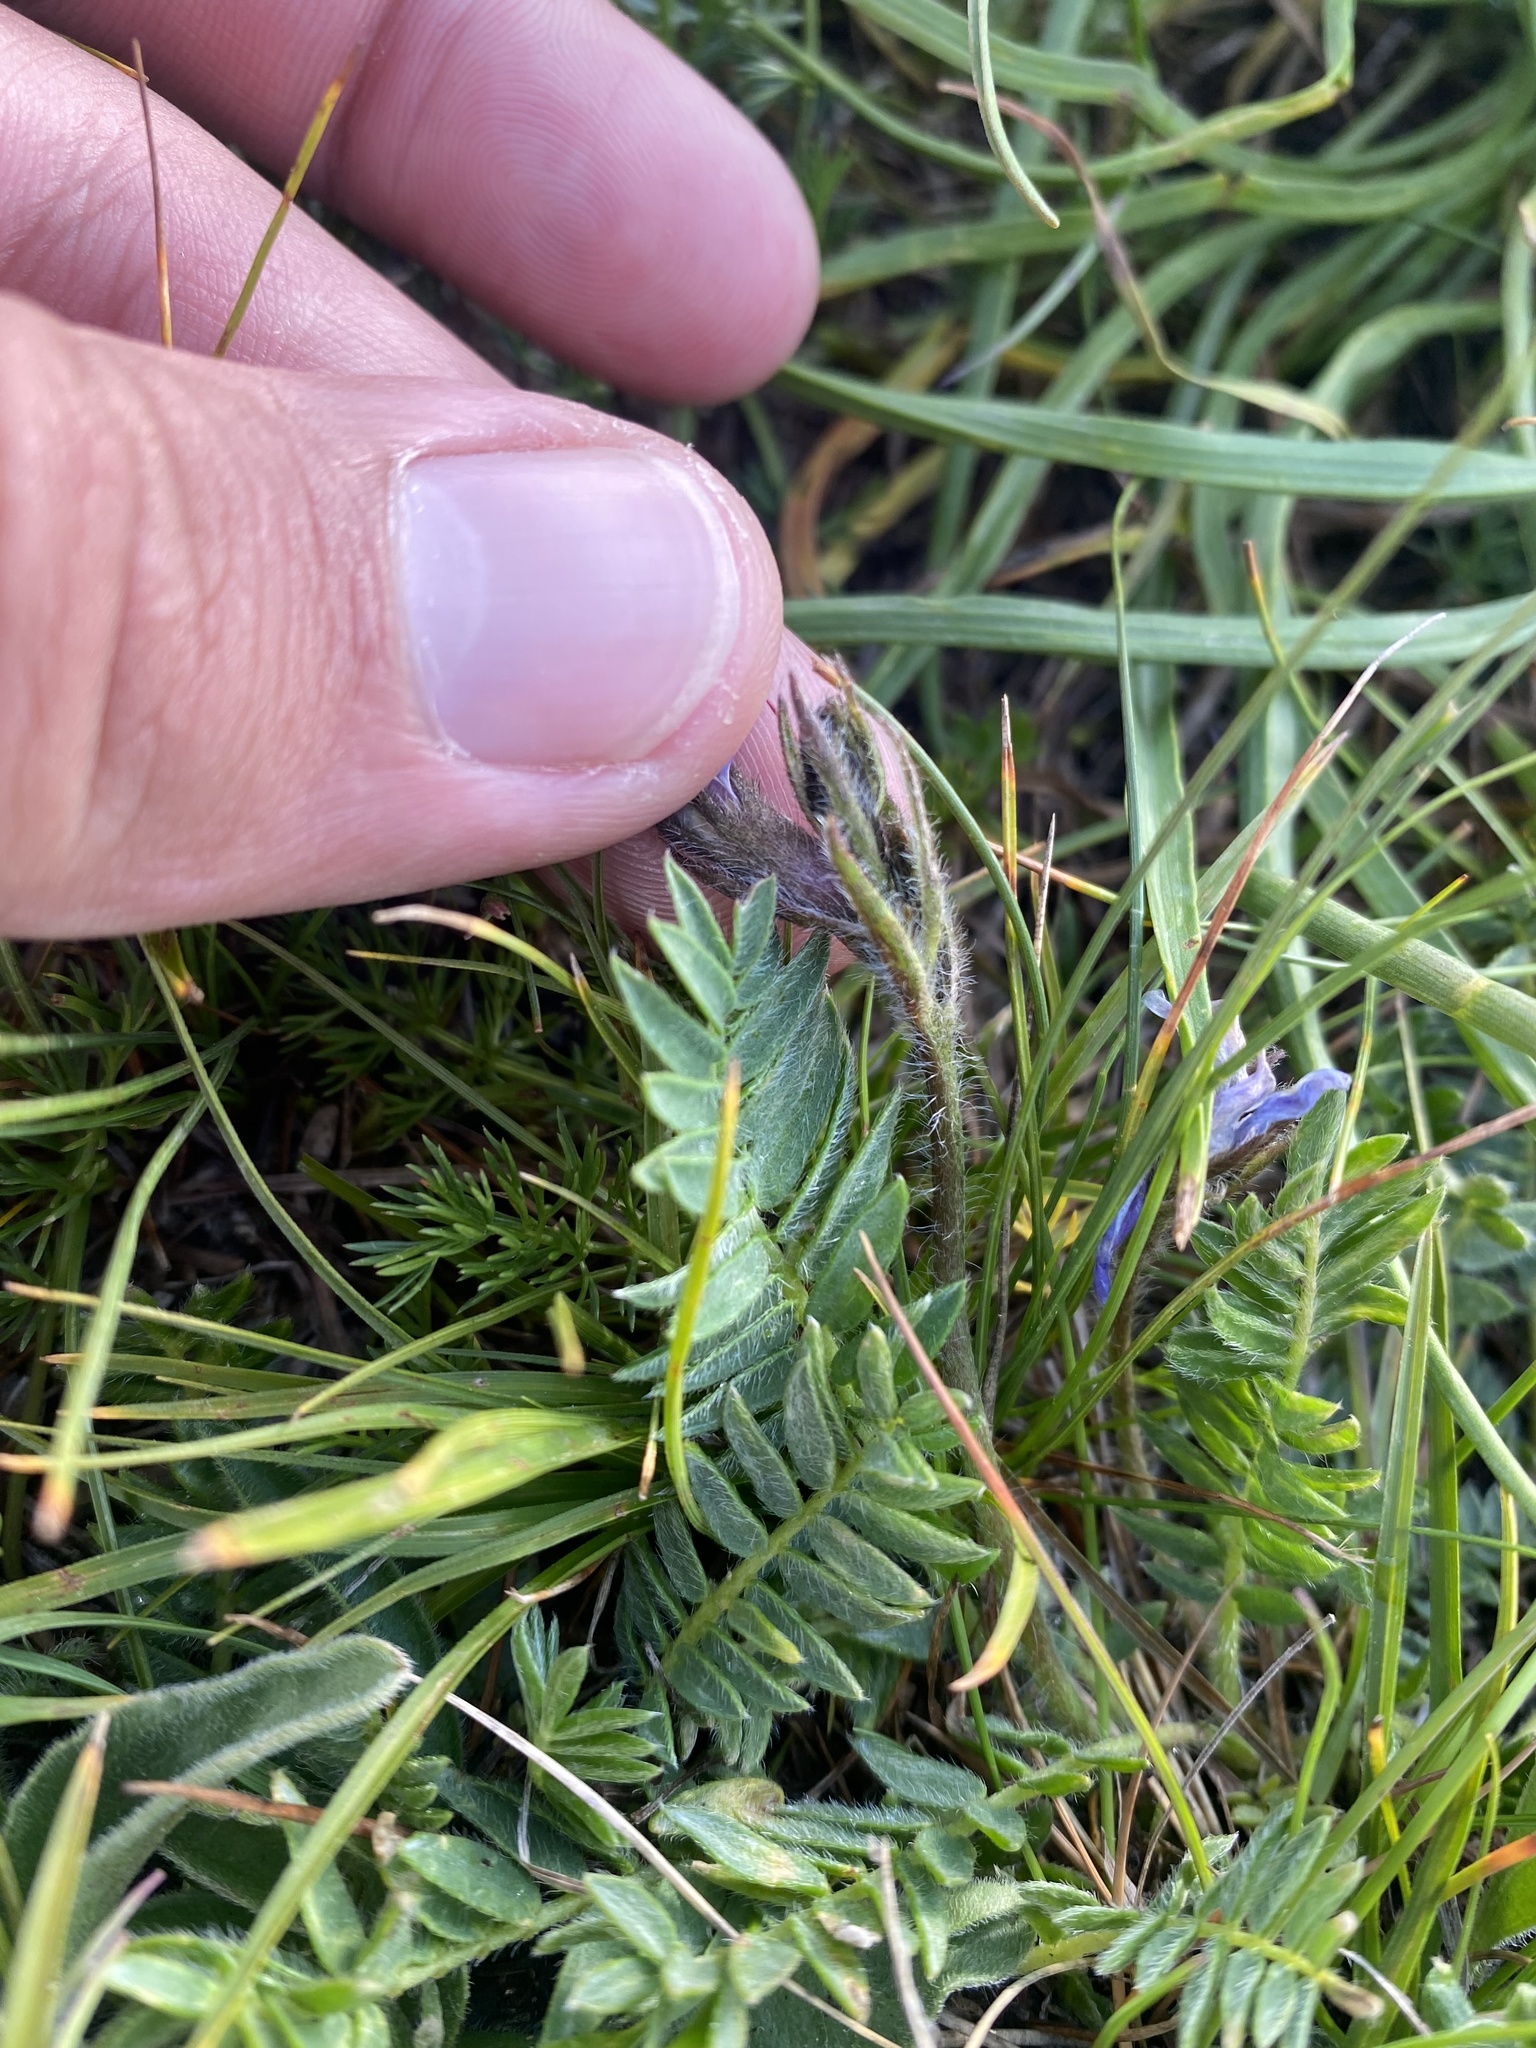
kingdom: Plantae
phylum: Tracheophyta
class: Magnoliopsida
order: Fabales
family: Fabaceae
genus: Oxytropis
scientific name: Oxytropis lazica
